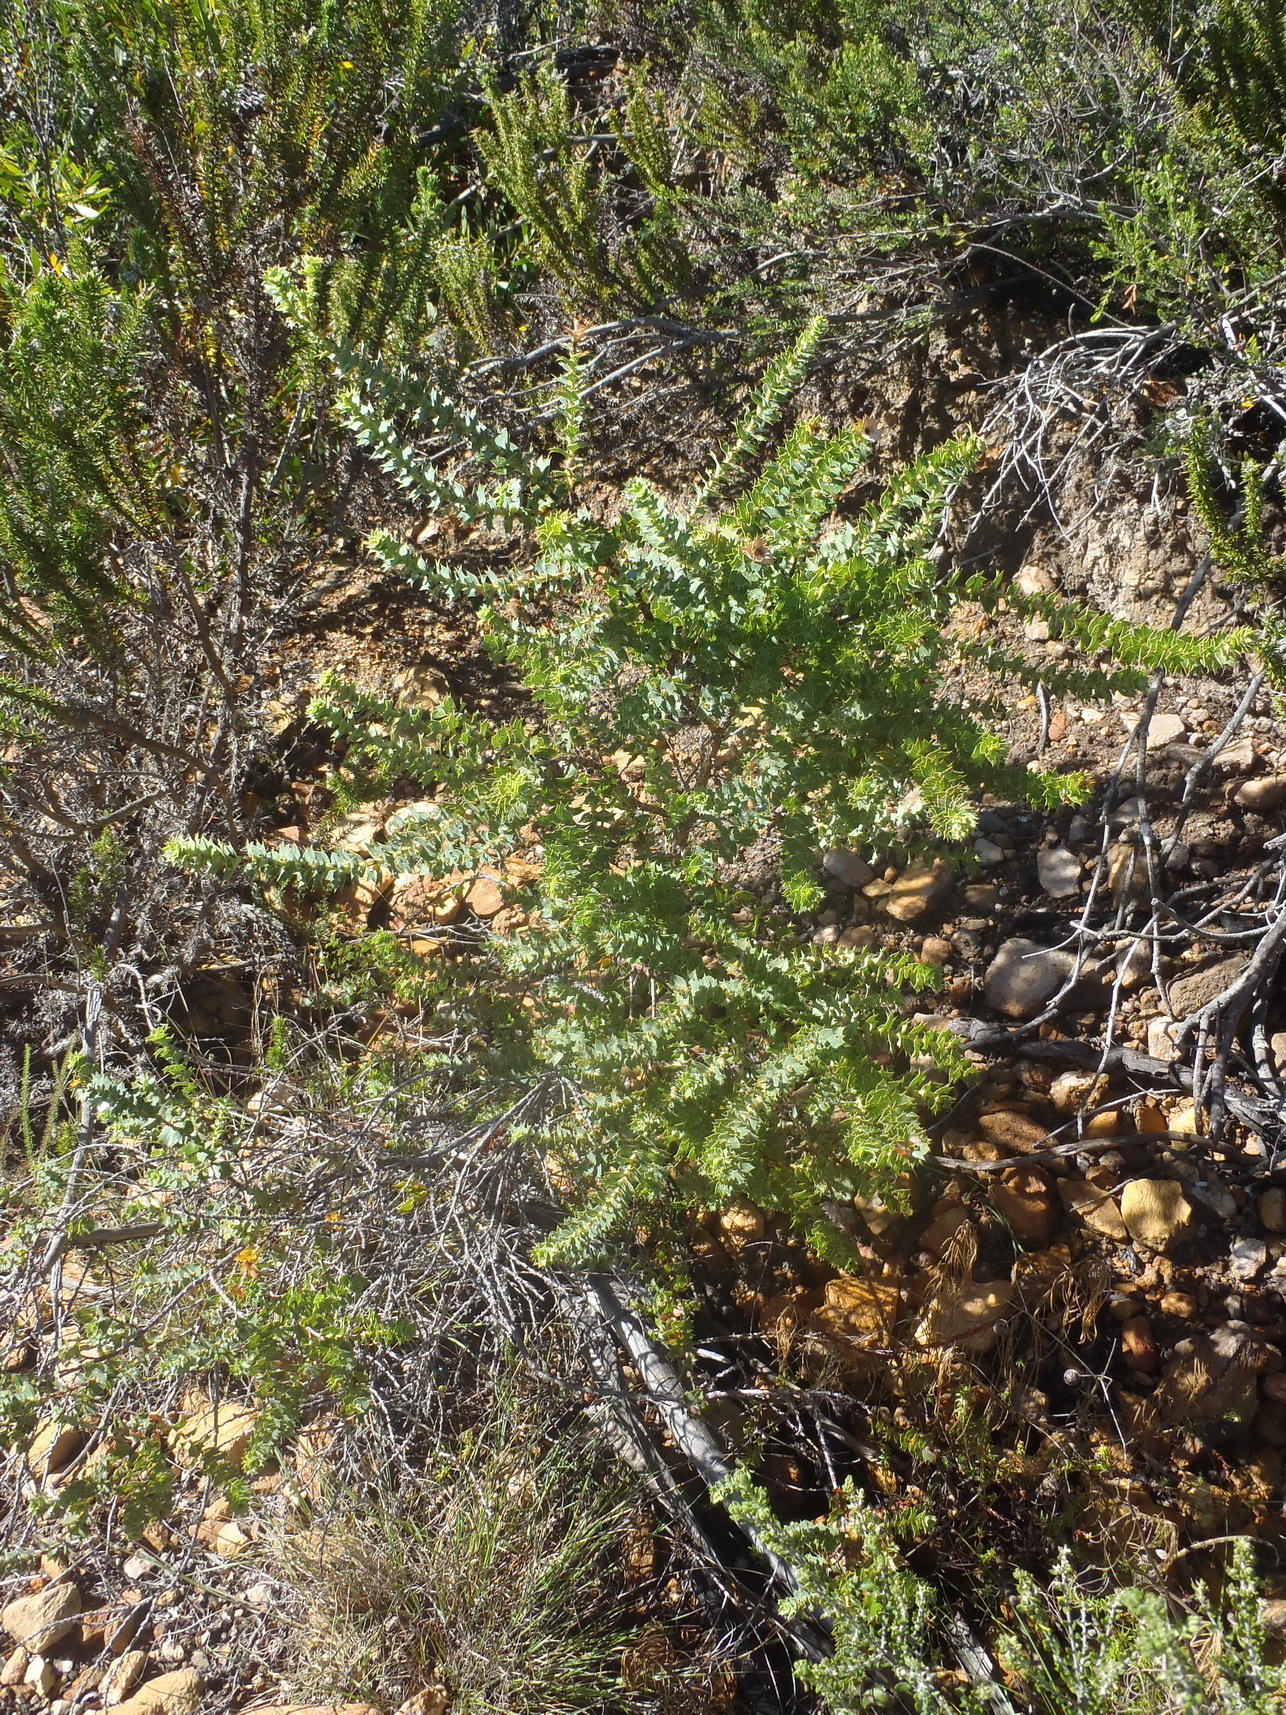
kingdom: Plantae
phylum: Tracheophyta
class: Magnoliopsida
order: Rosales
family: Rosaceae
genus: Cliffortia
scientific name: Cliffortia ilicifolia
